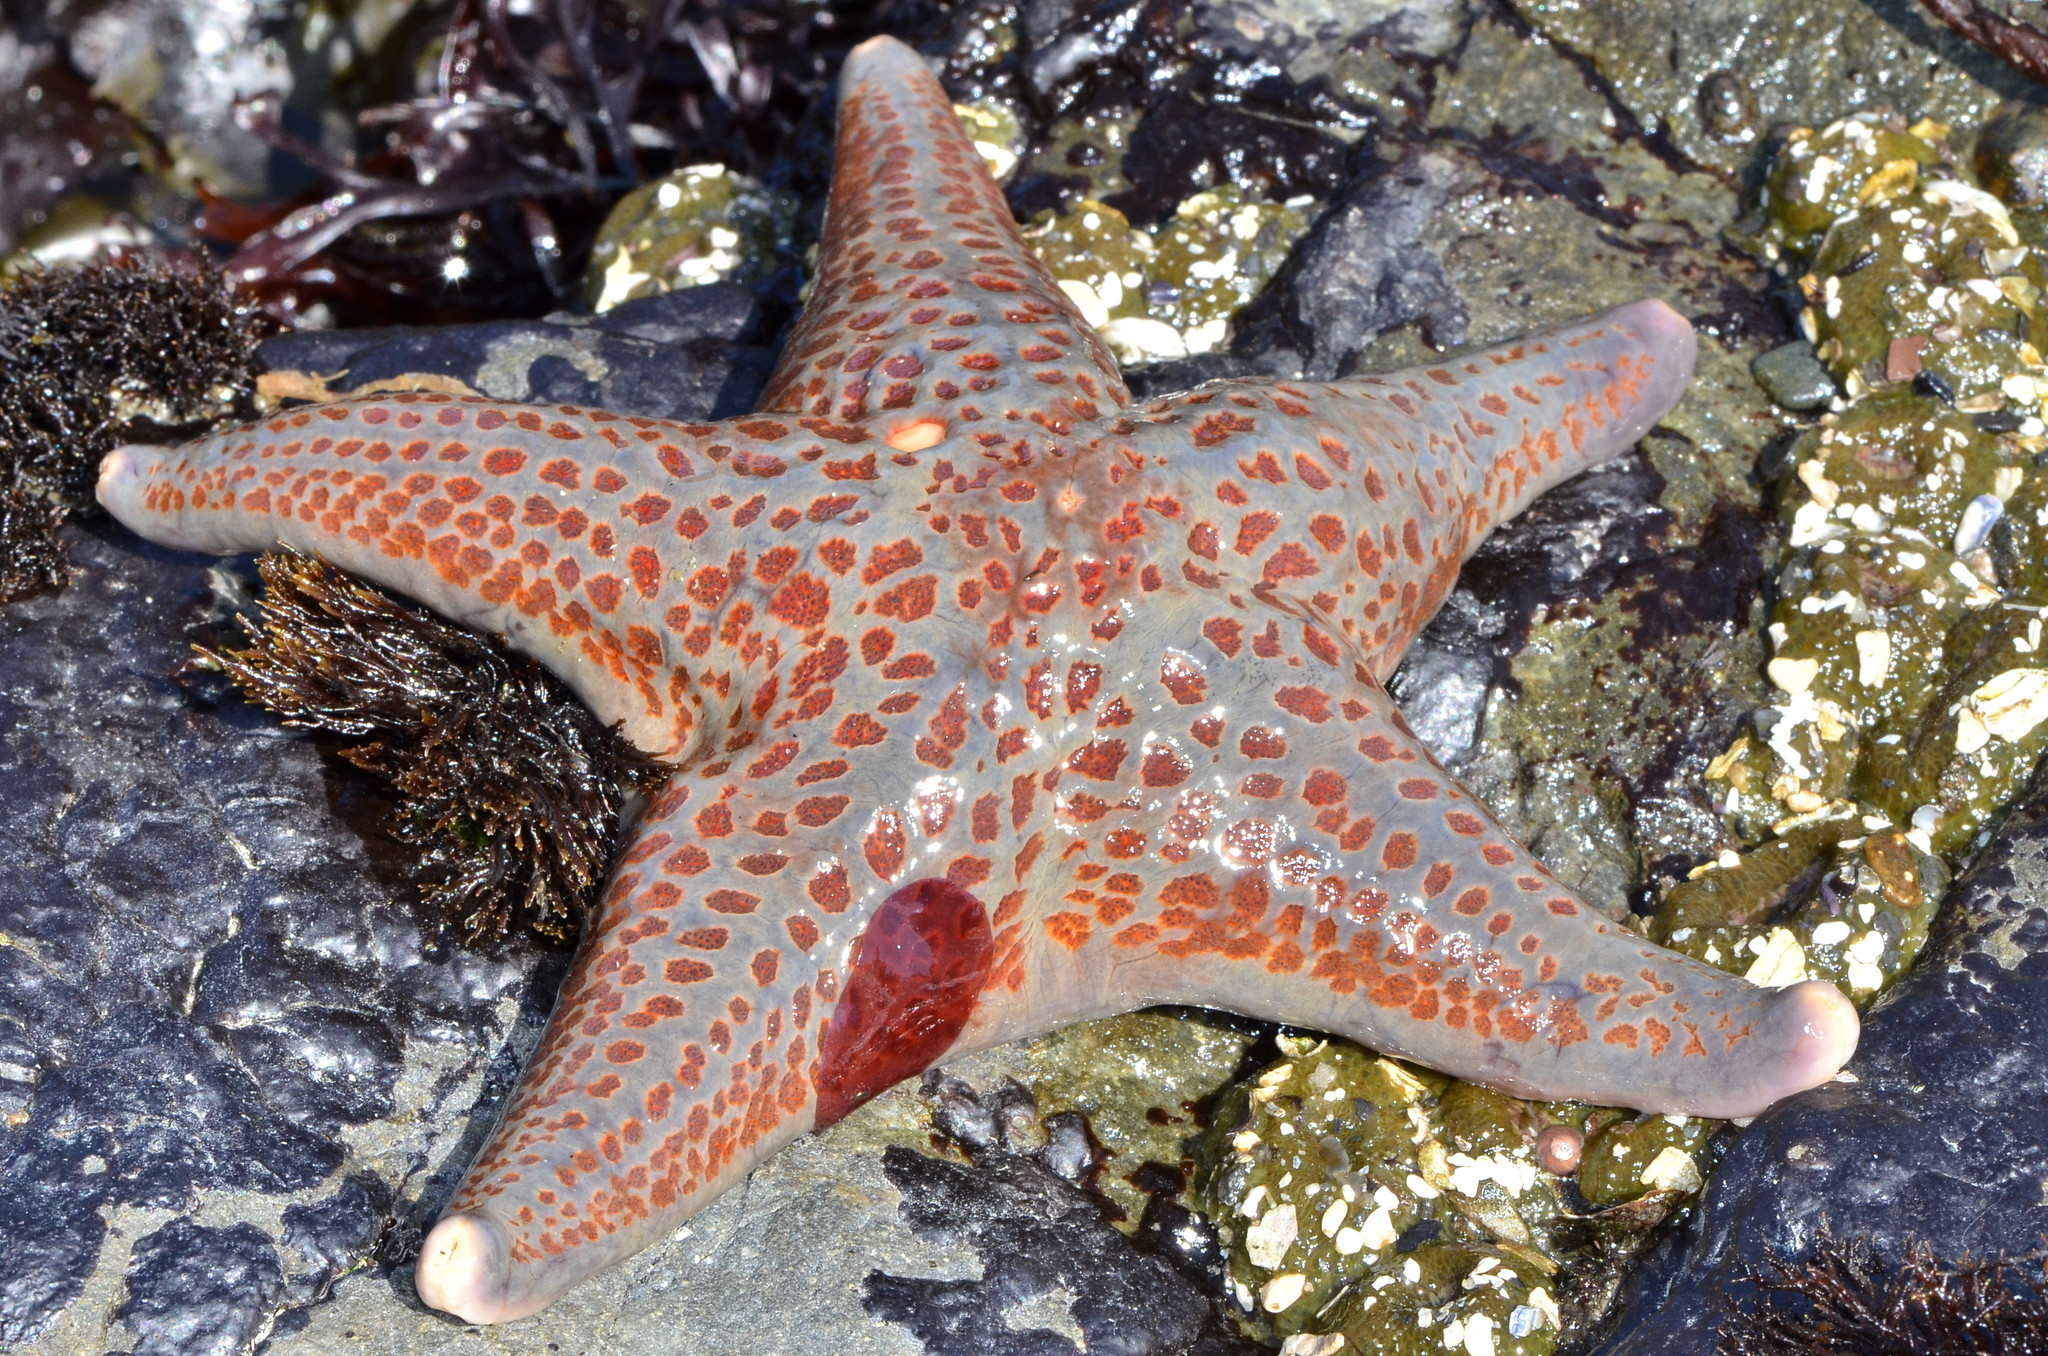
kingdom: Animalia
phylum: Echinodermata
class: Asteroidea
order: Valvatida
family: Asteropseidae
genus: Dermasterias
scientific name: Dermasterias imbricata
